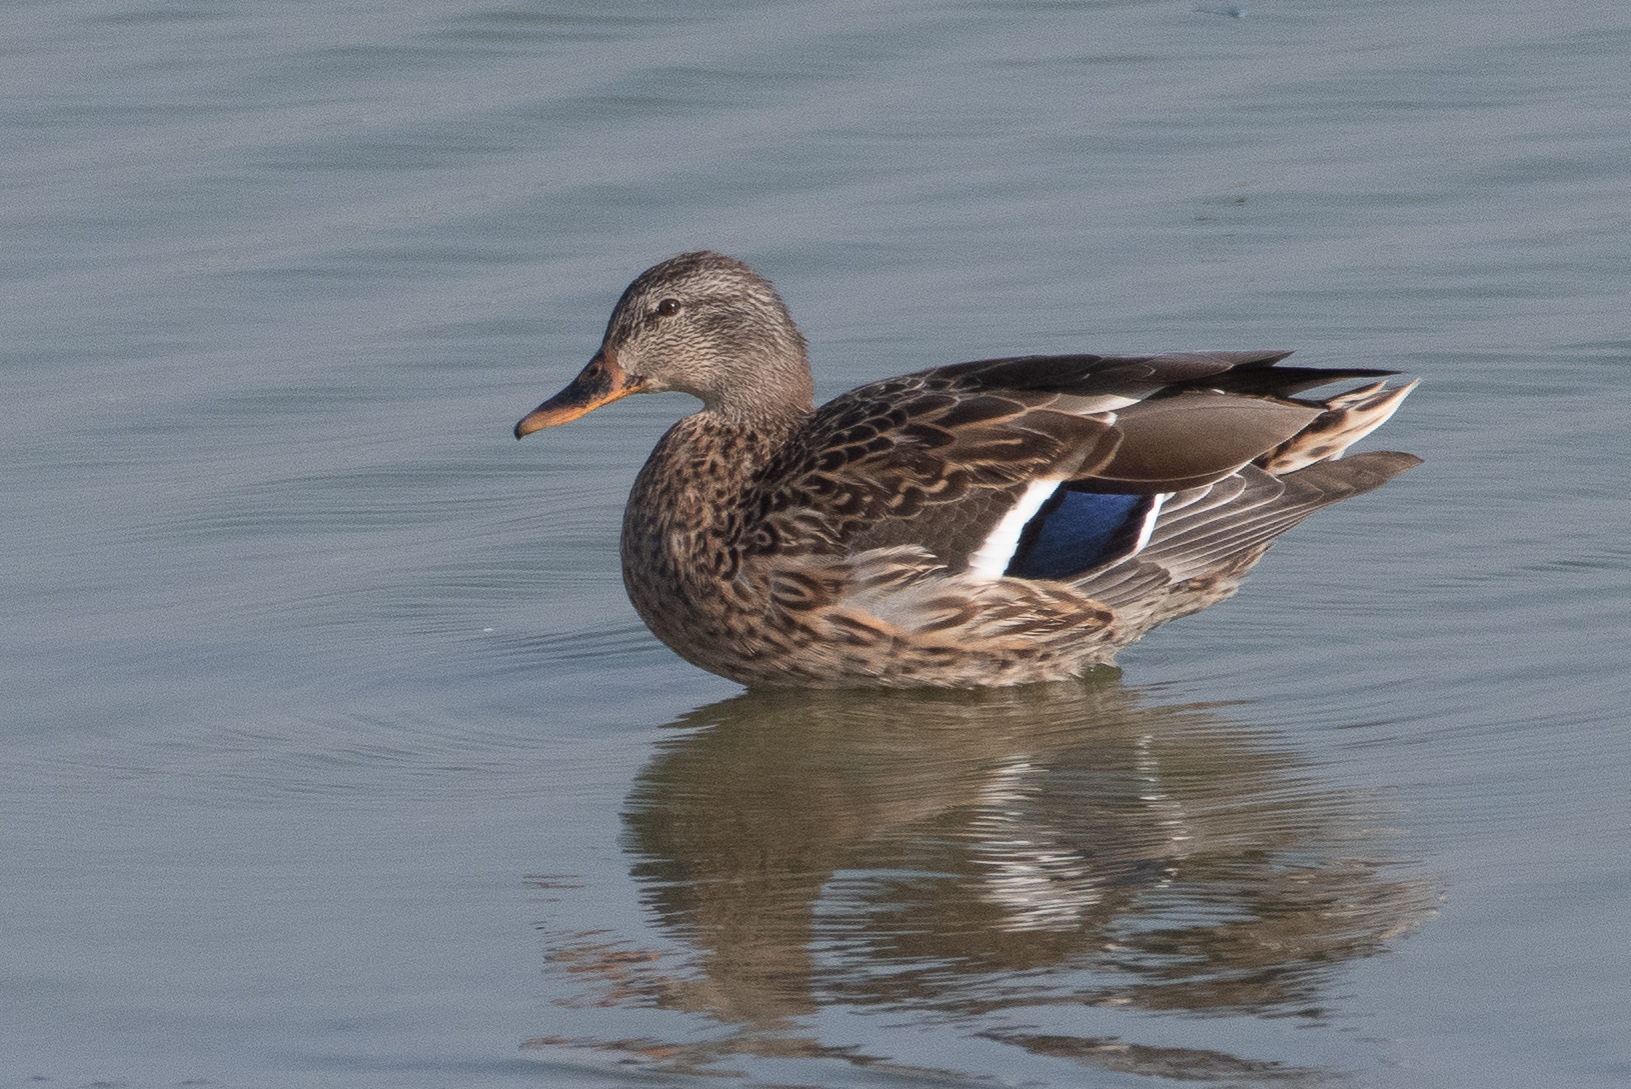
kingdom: Animalia
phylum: Chordata
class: Aves
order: Anseriformes
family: Anatidae
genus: Anas
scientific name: Anas platyrhynchos
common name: Mallard
